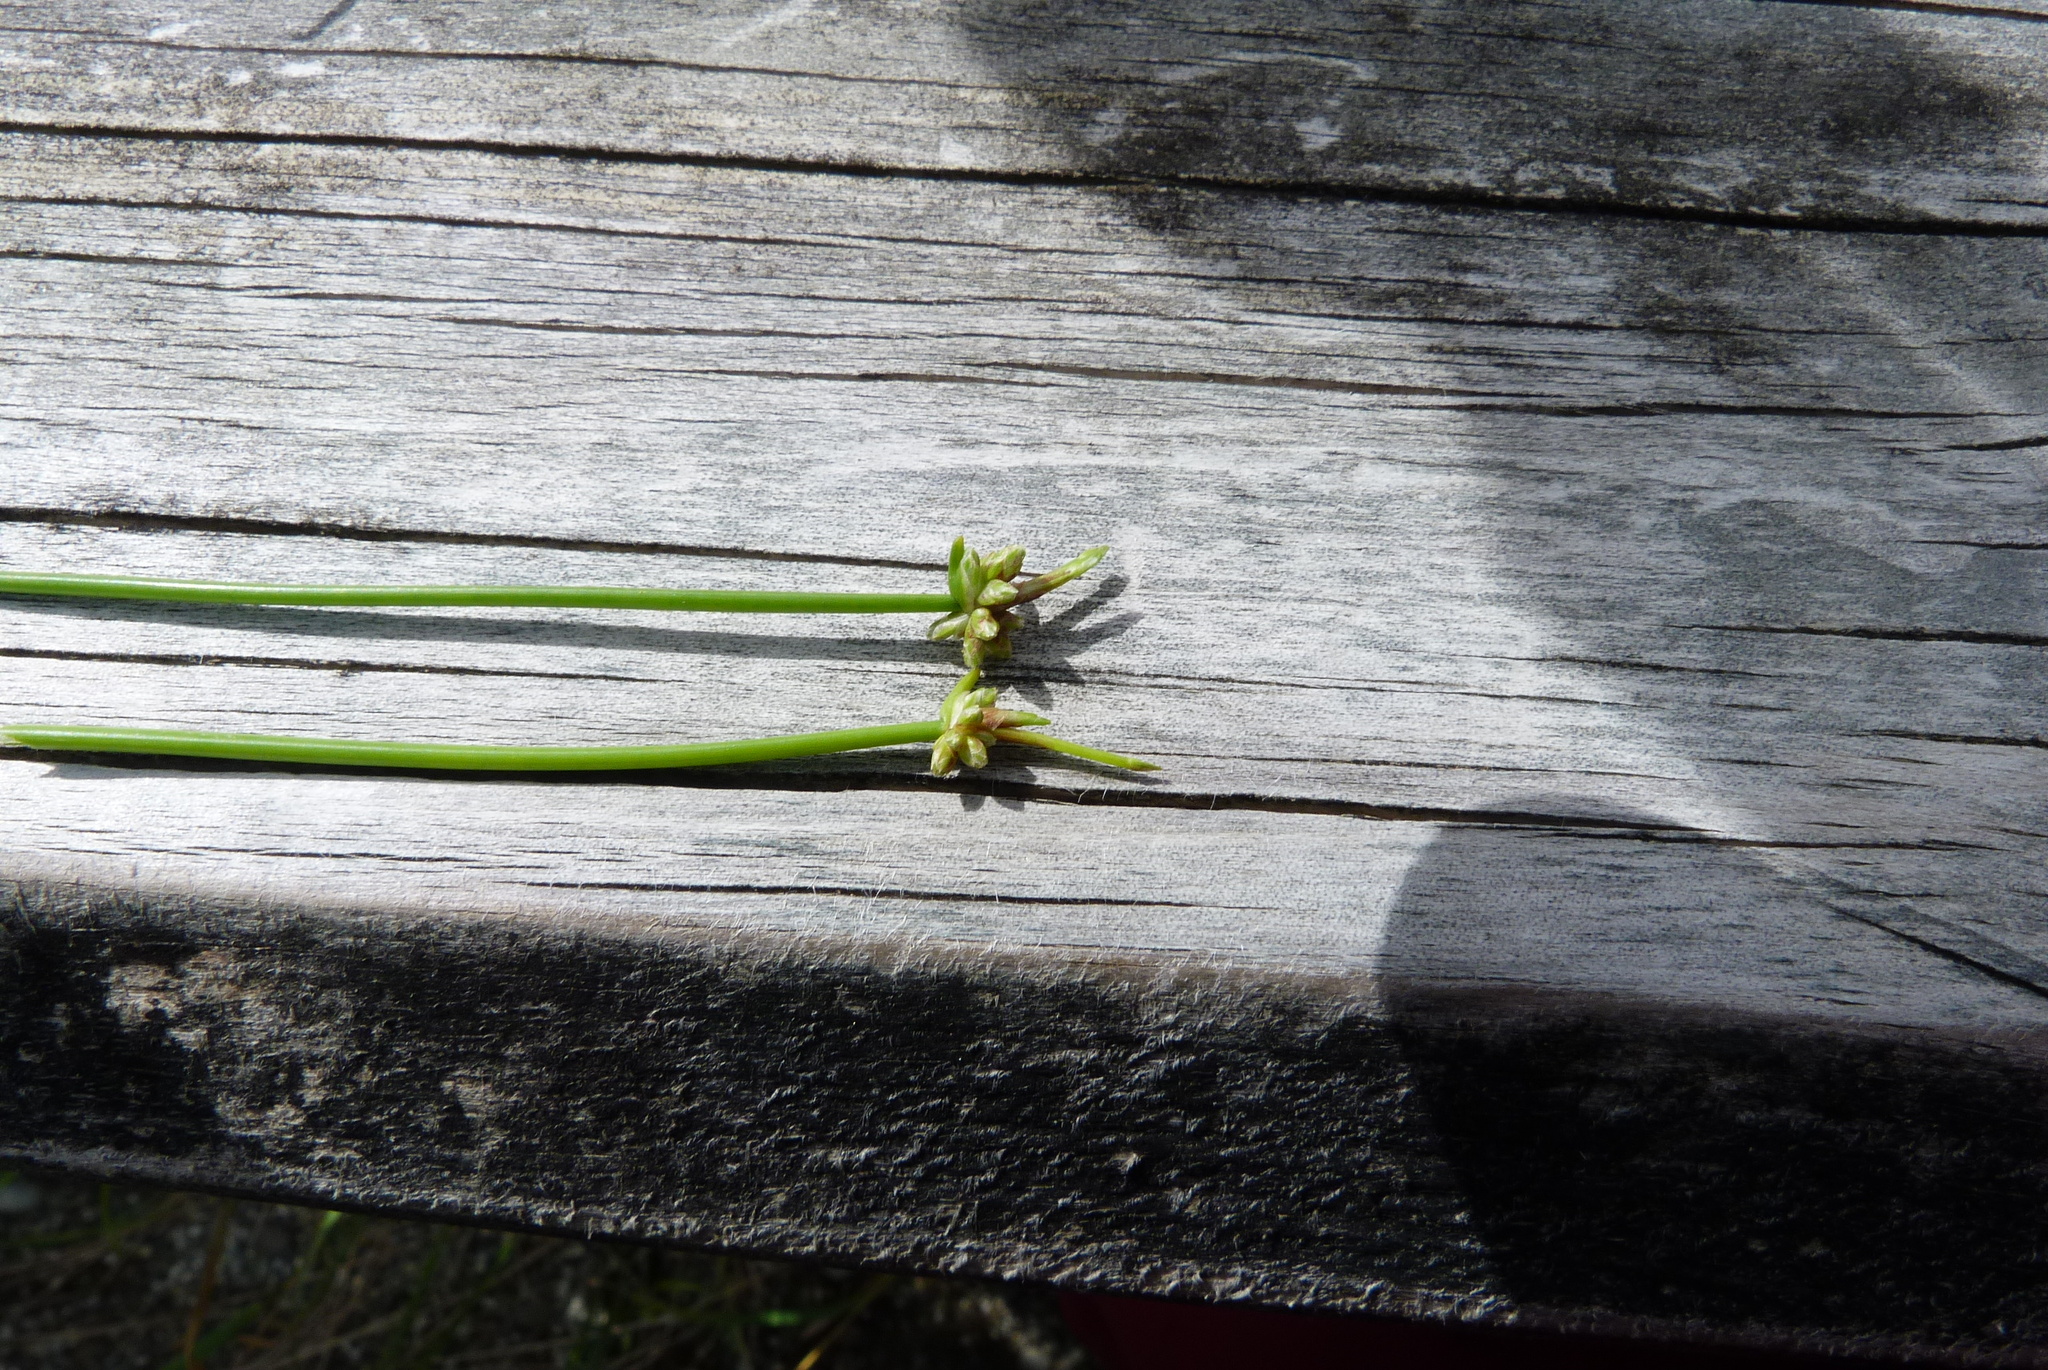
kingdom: Plantae
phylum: Tracheophyta
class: Liliopsida
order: Poales
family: Cyperaceae
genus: Isolepis
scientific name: Isolepis distigmatosa
